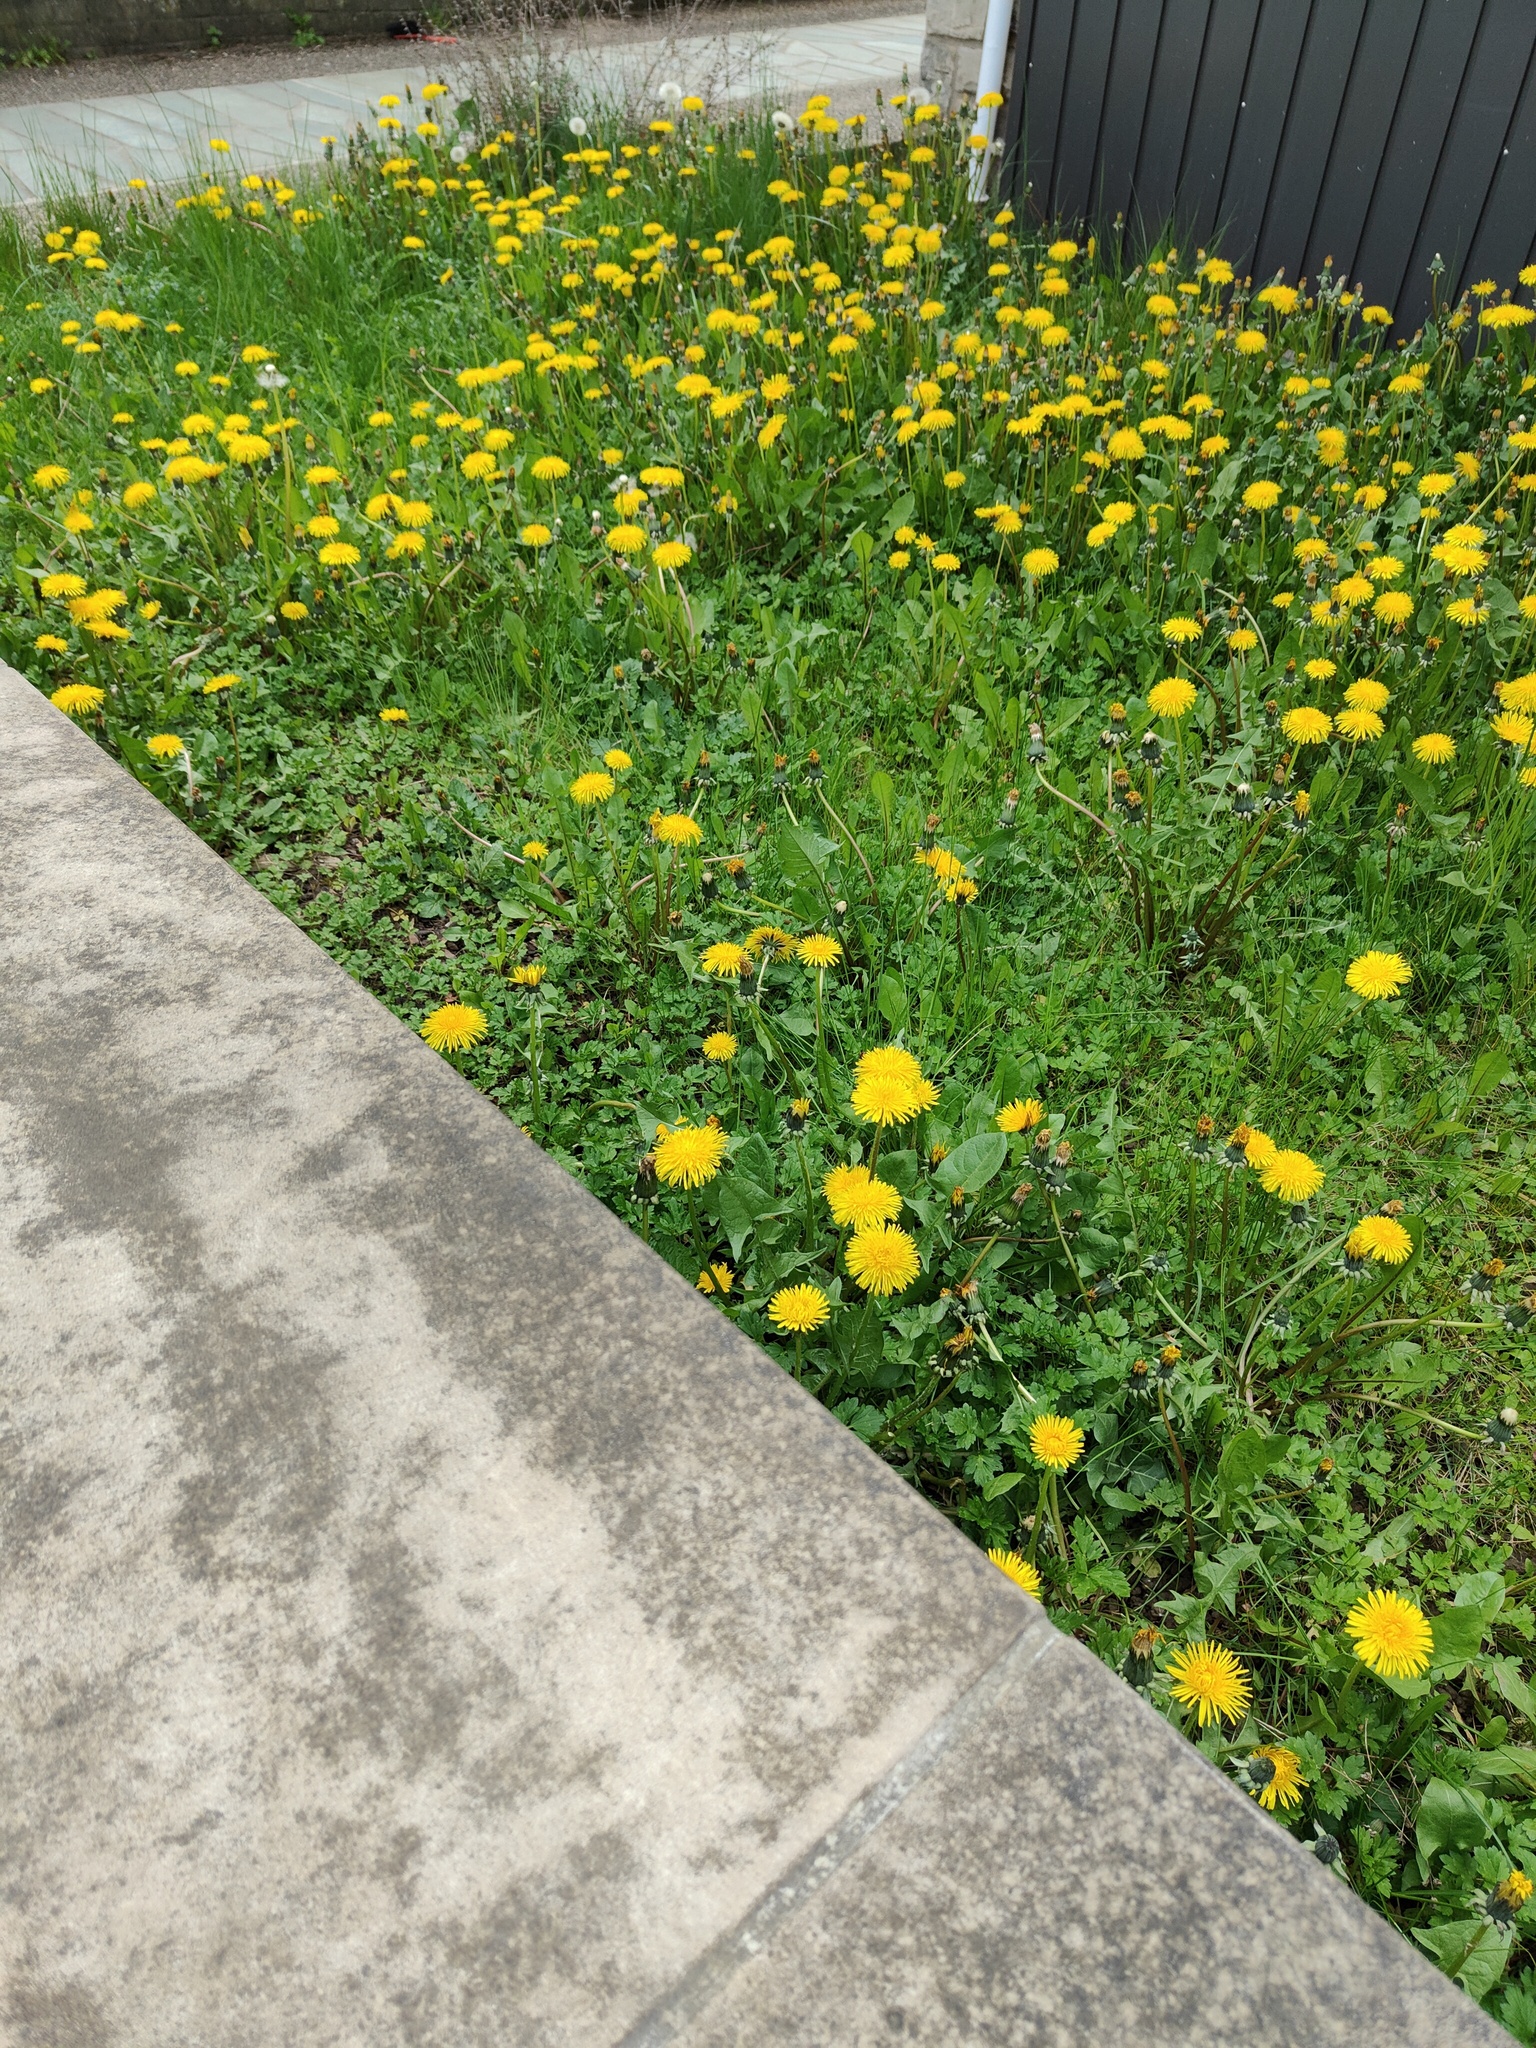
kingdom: Plantae
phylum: Tracheophyta
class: Magnoliopsida
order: Asterales
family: Asteraceae
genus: Taraxacum
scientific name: Taraxacum officinale
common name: Common dandelion
